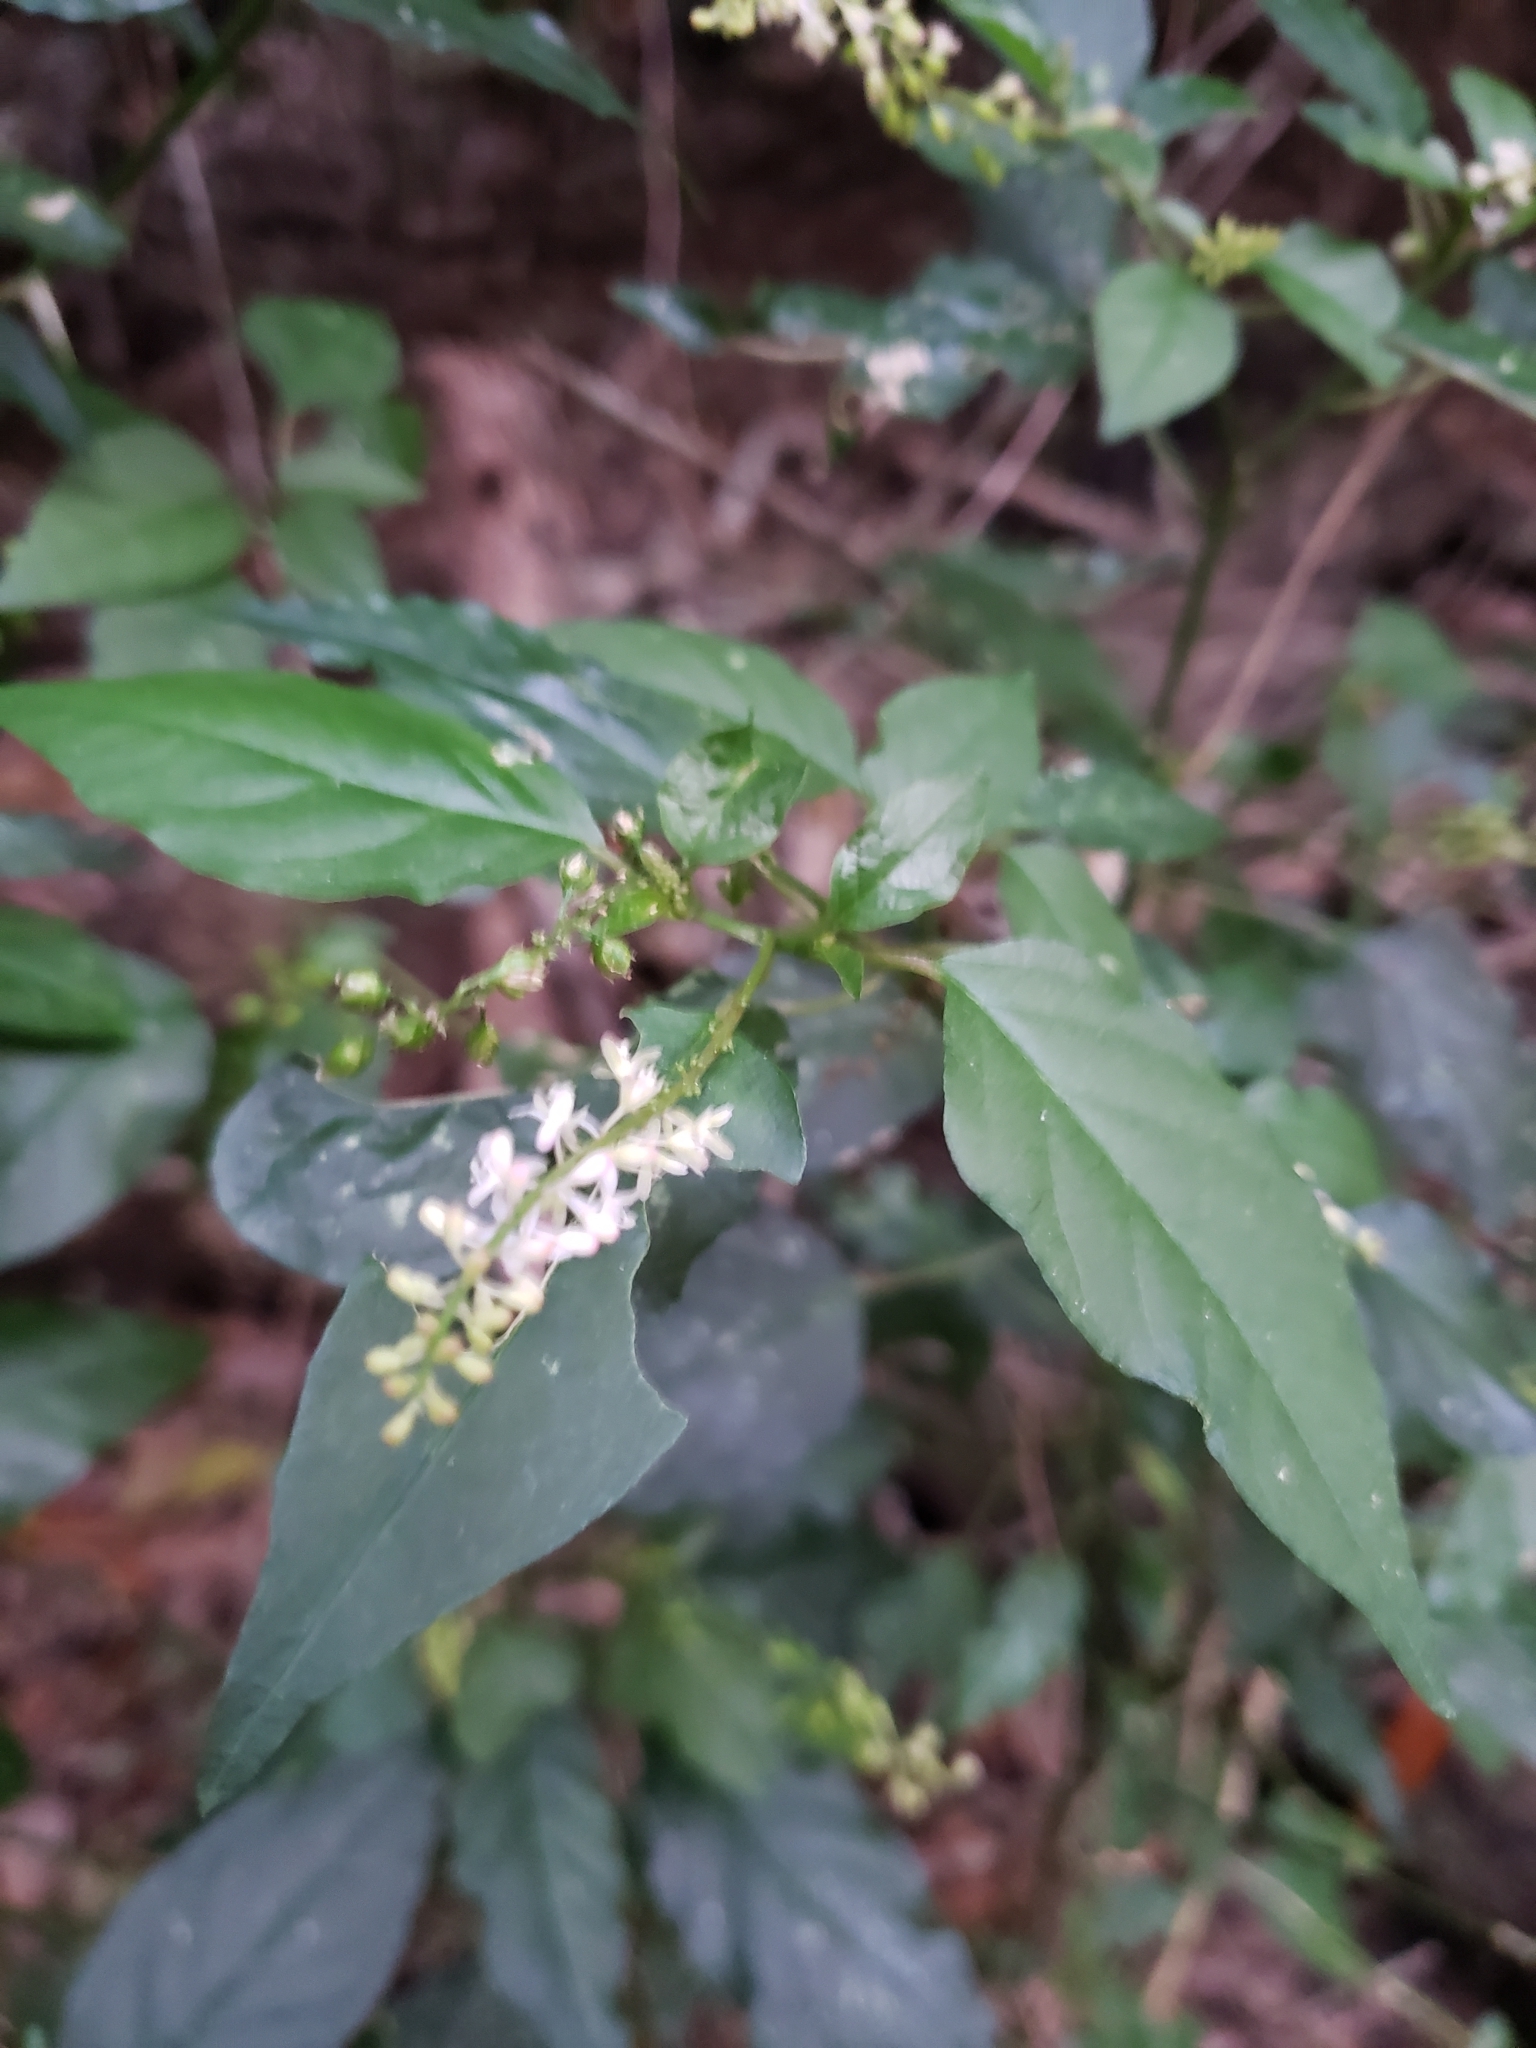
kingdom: Plantae
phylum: Tracheophyta
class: Magnoliopsida
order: Caryophyllales
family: Phytolaccaceae
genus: Rivina
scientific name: Rivina humilis
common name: Rougeplant
